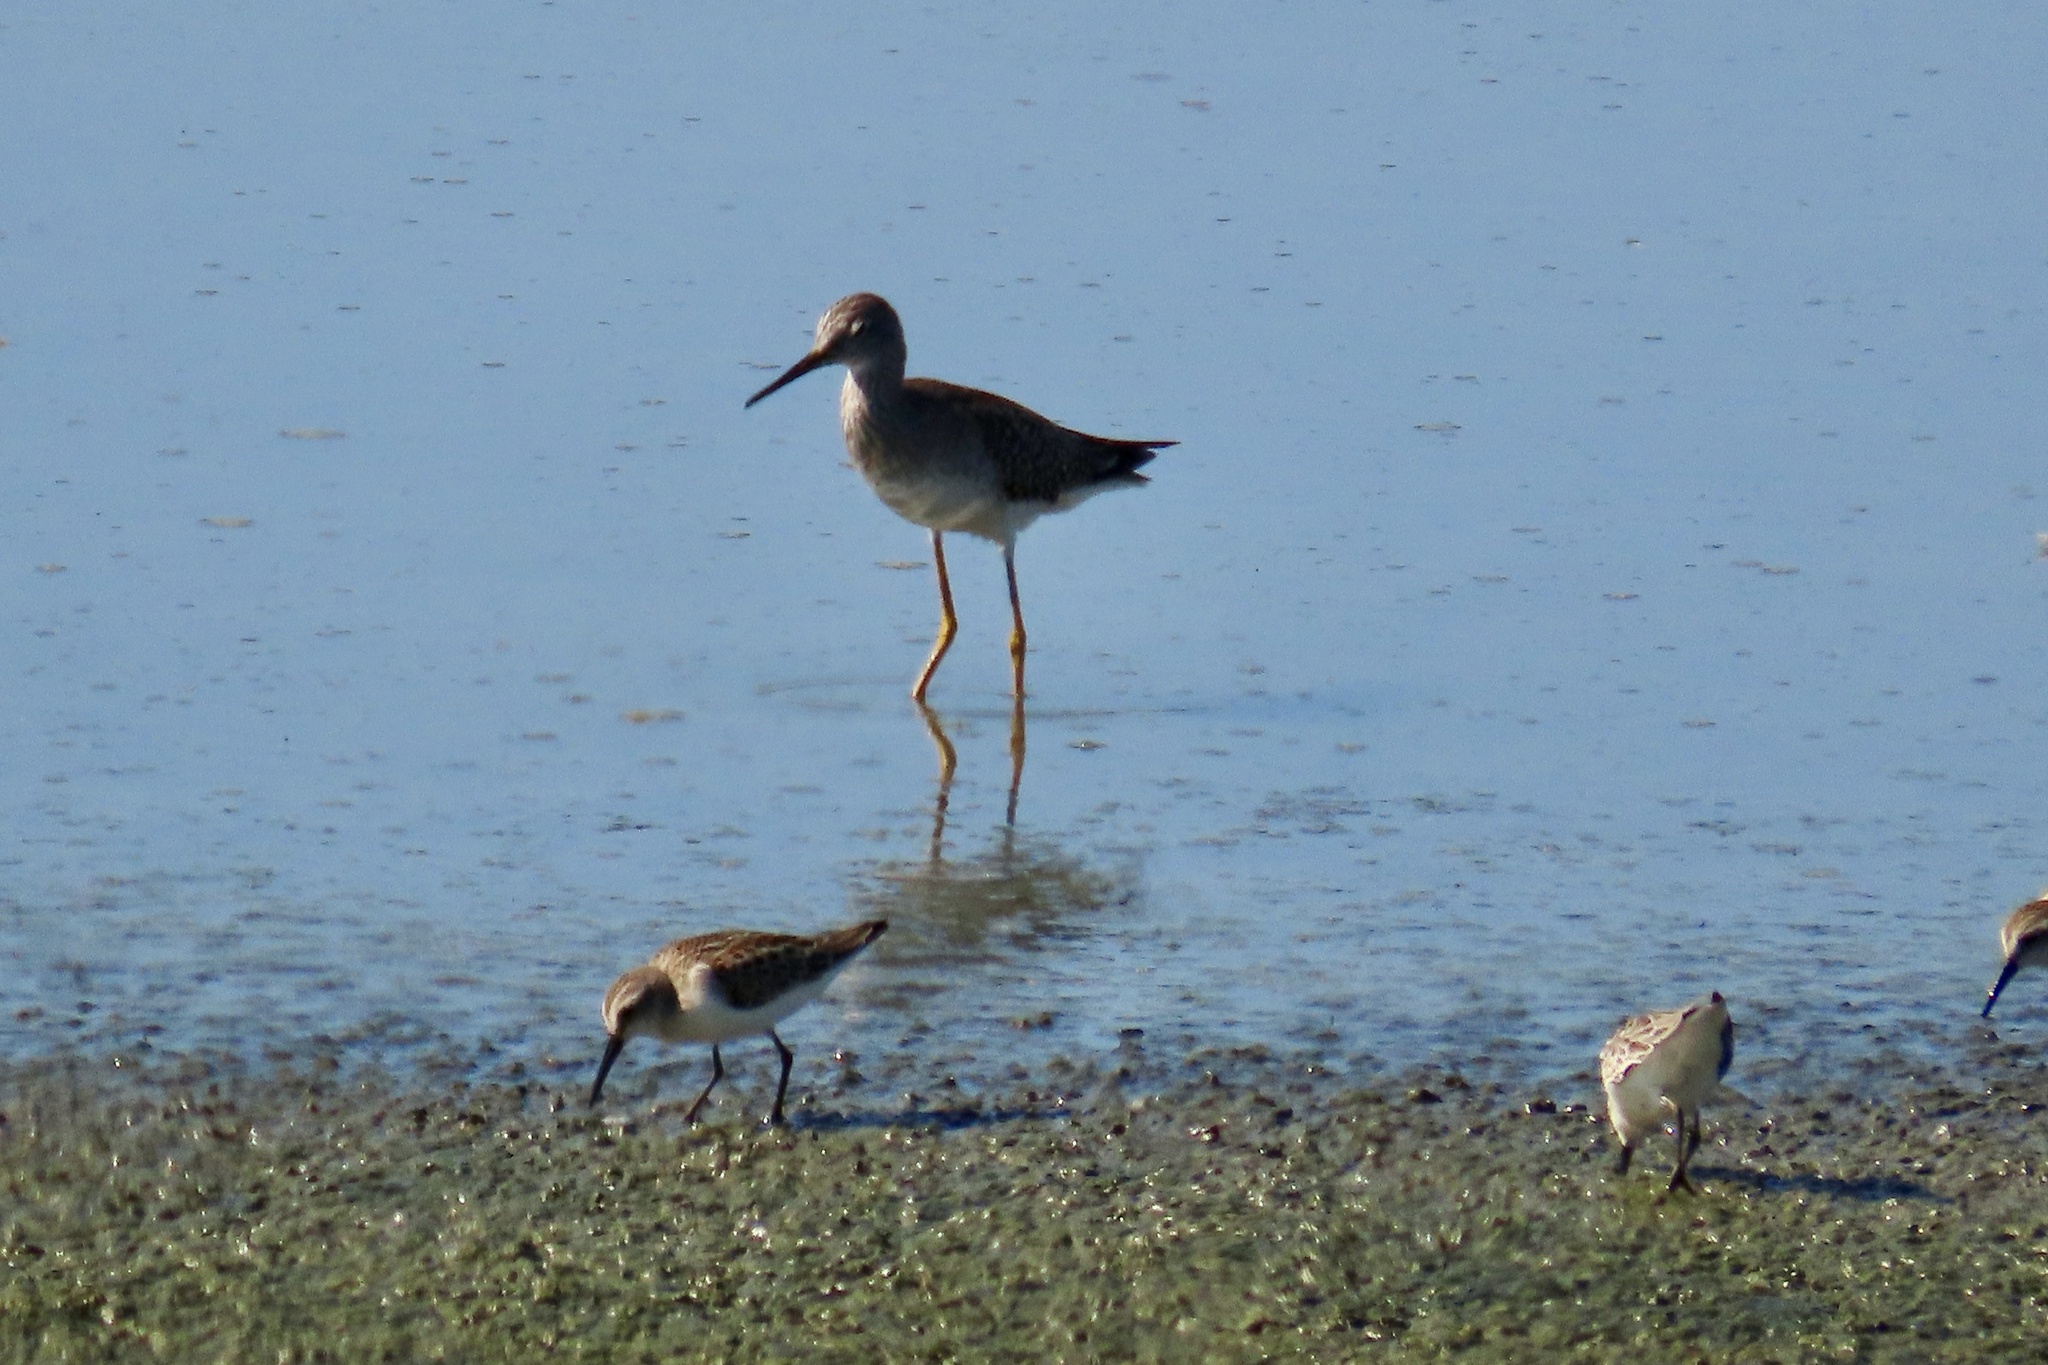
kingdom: Animalia
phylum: Chordata
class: Aves
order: Charadriiformes
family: Scolopacidae
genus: Tringa
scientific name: Tringa flavipes
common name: Lesser yellowlegs
